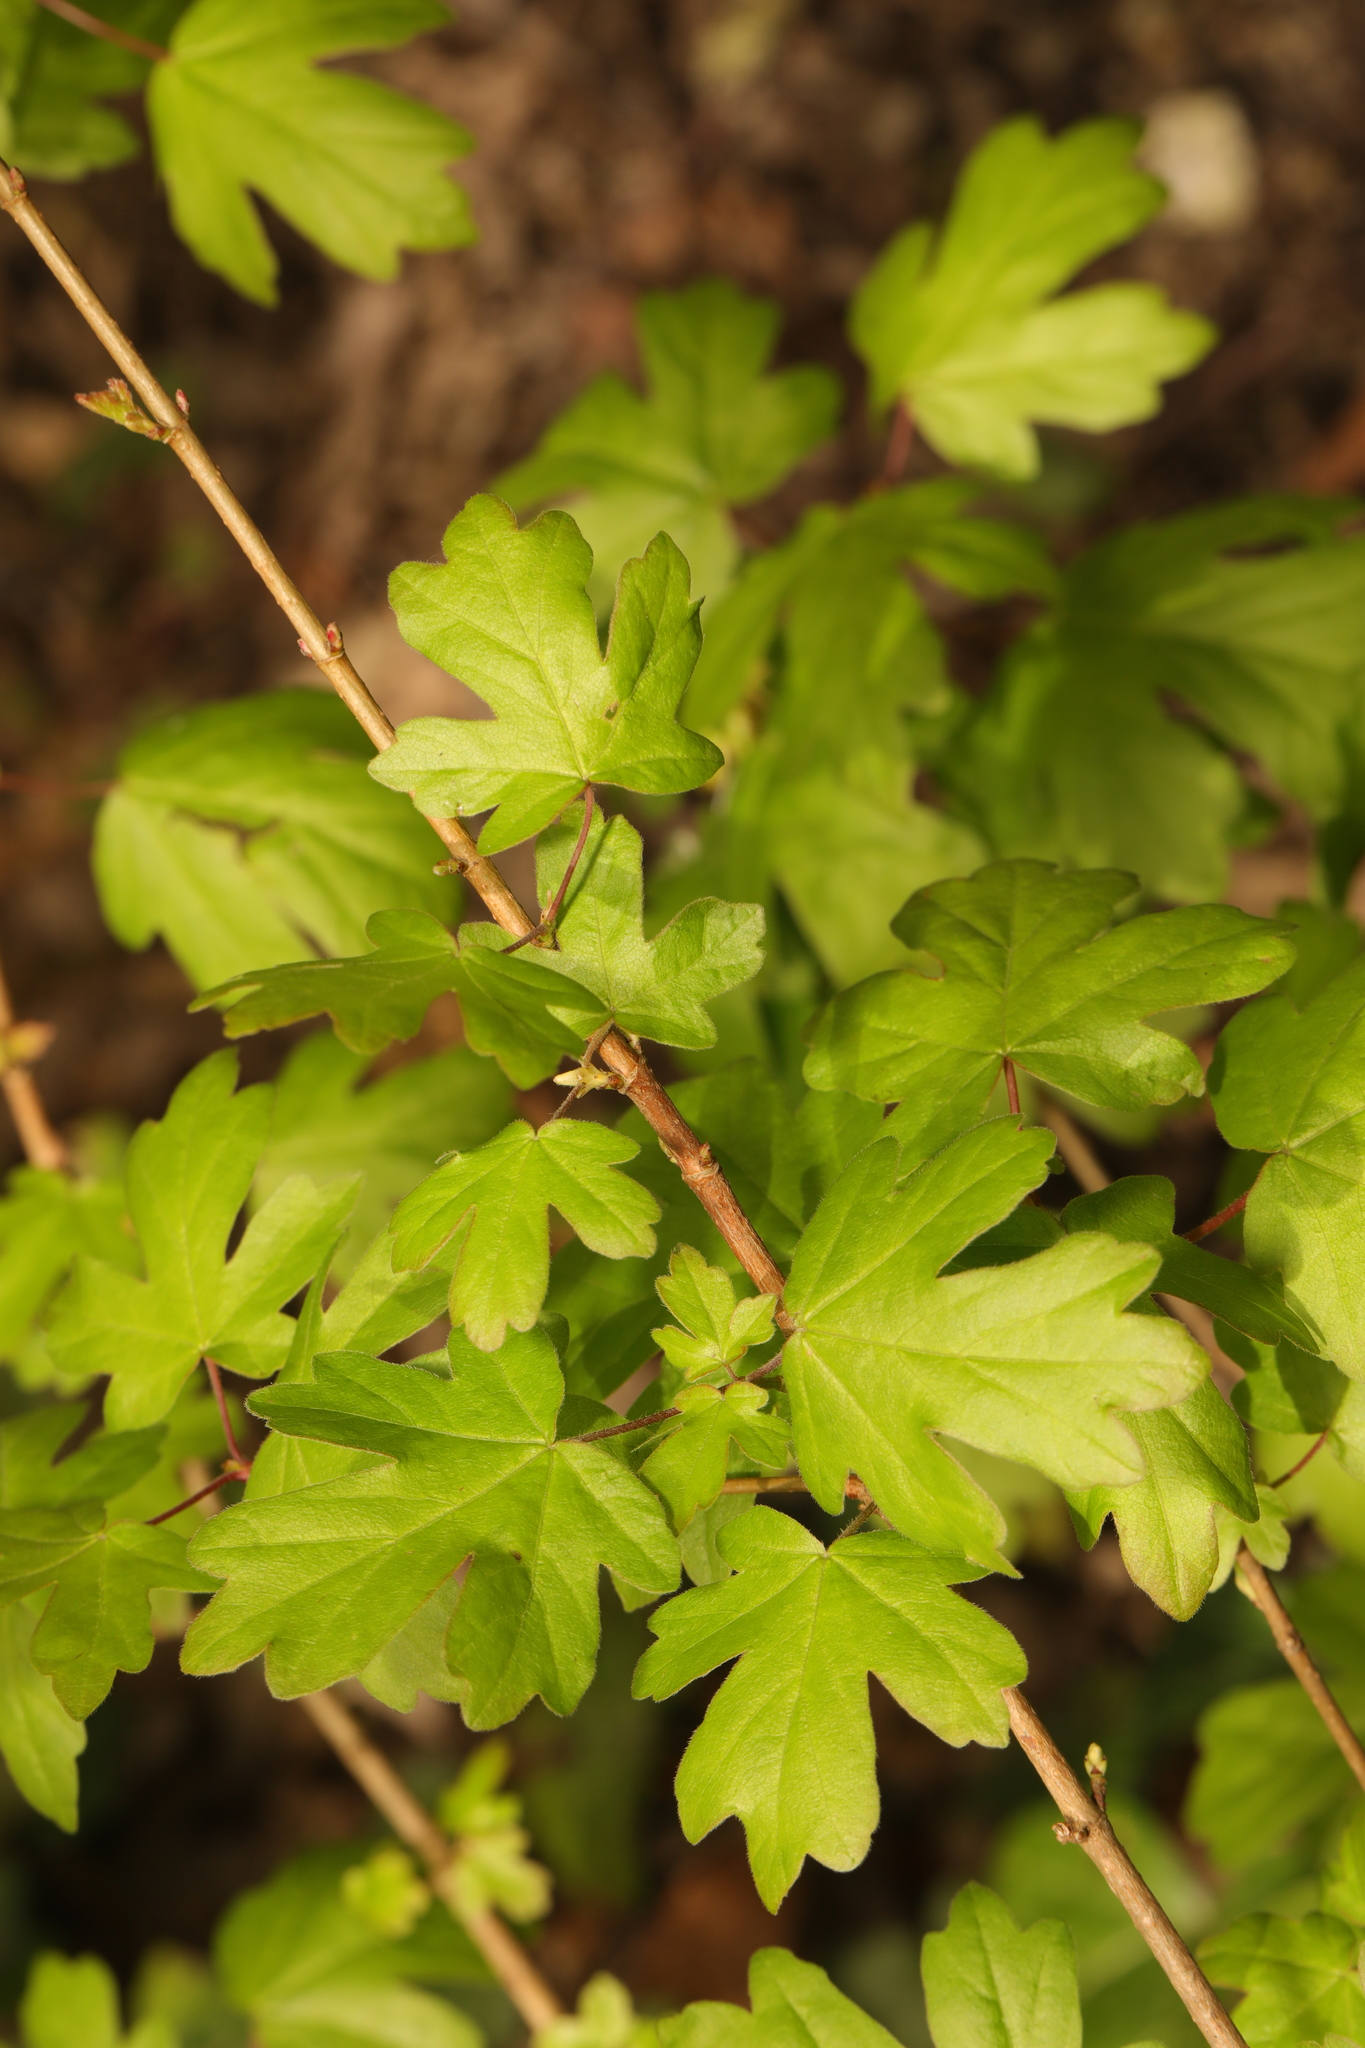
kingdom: Plantae
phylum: Tracheophyta
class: Magnoliopsida
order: Sapindales
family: Sapindaceae
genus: Acer
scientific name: Acer campestre
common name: Field maple
